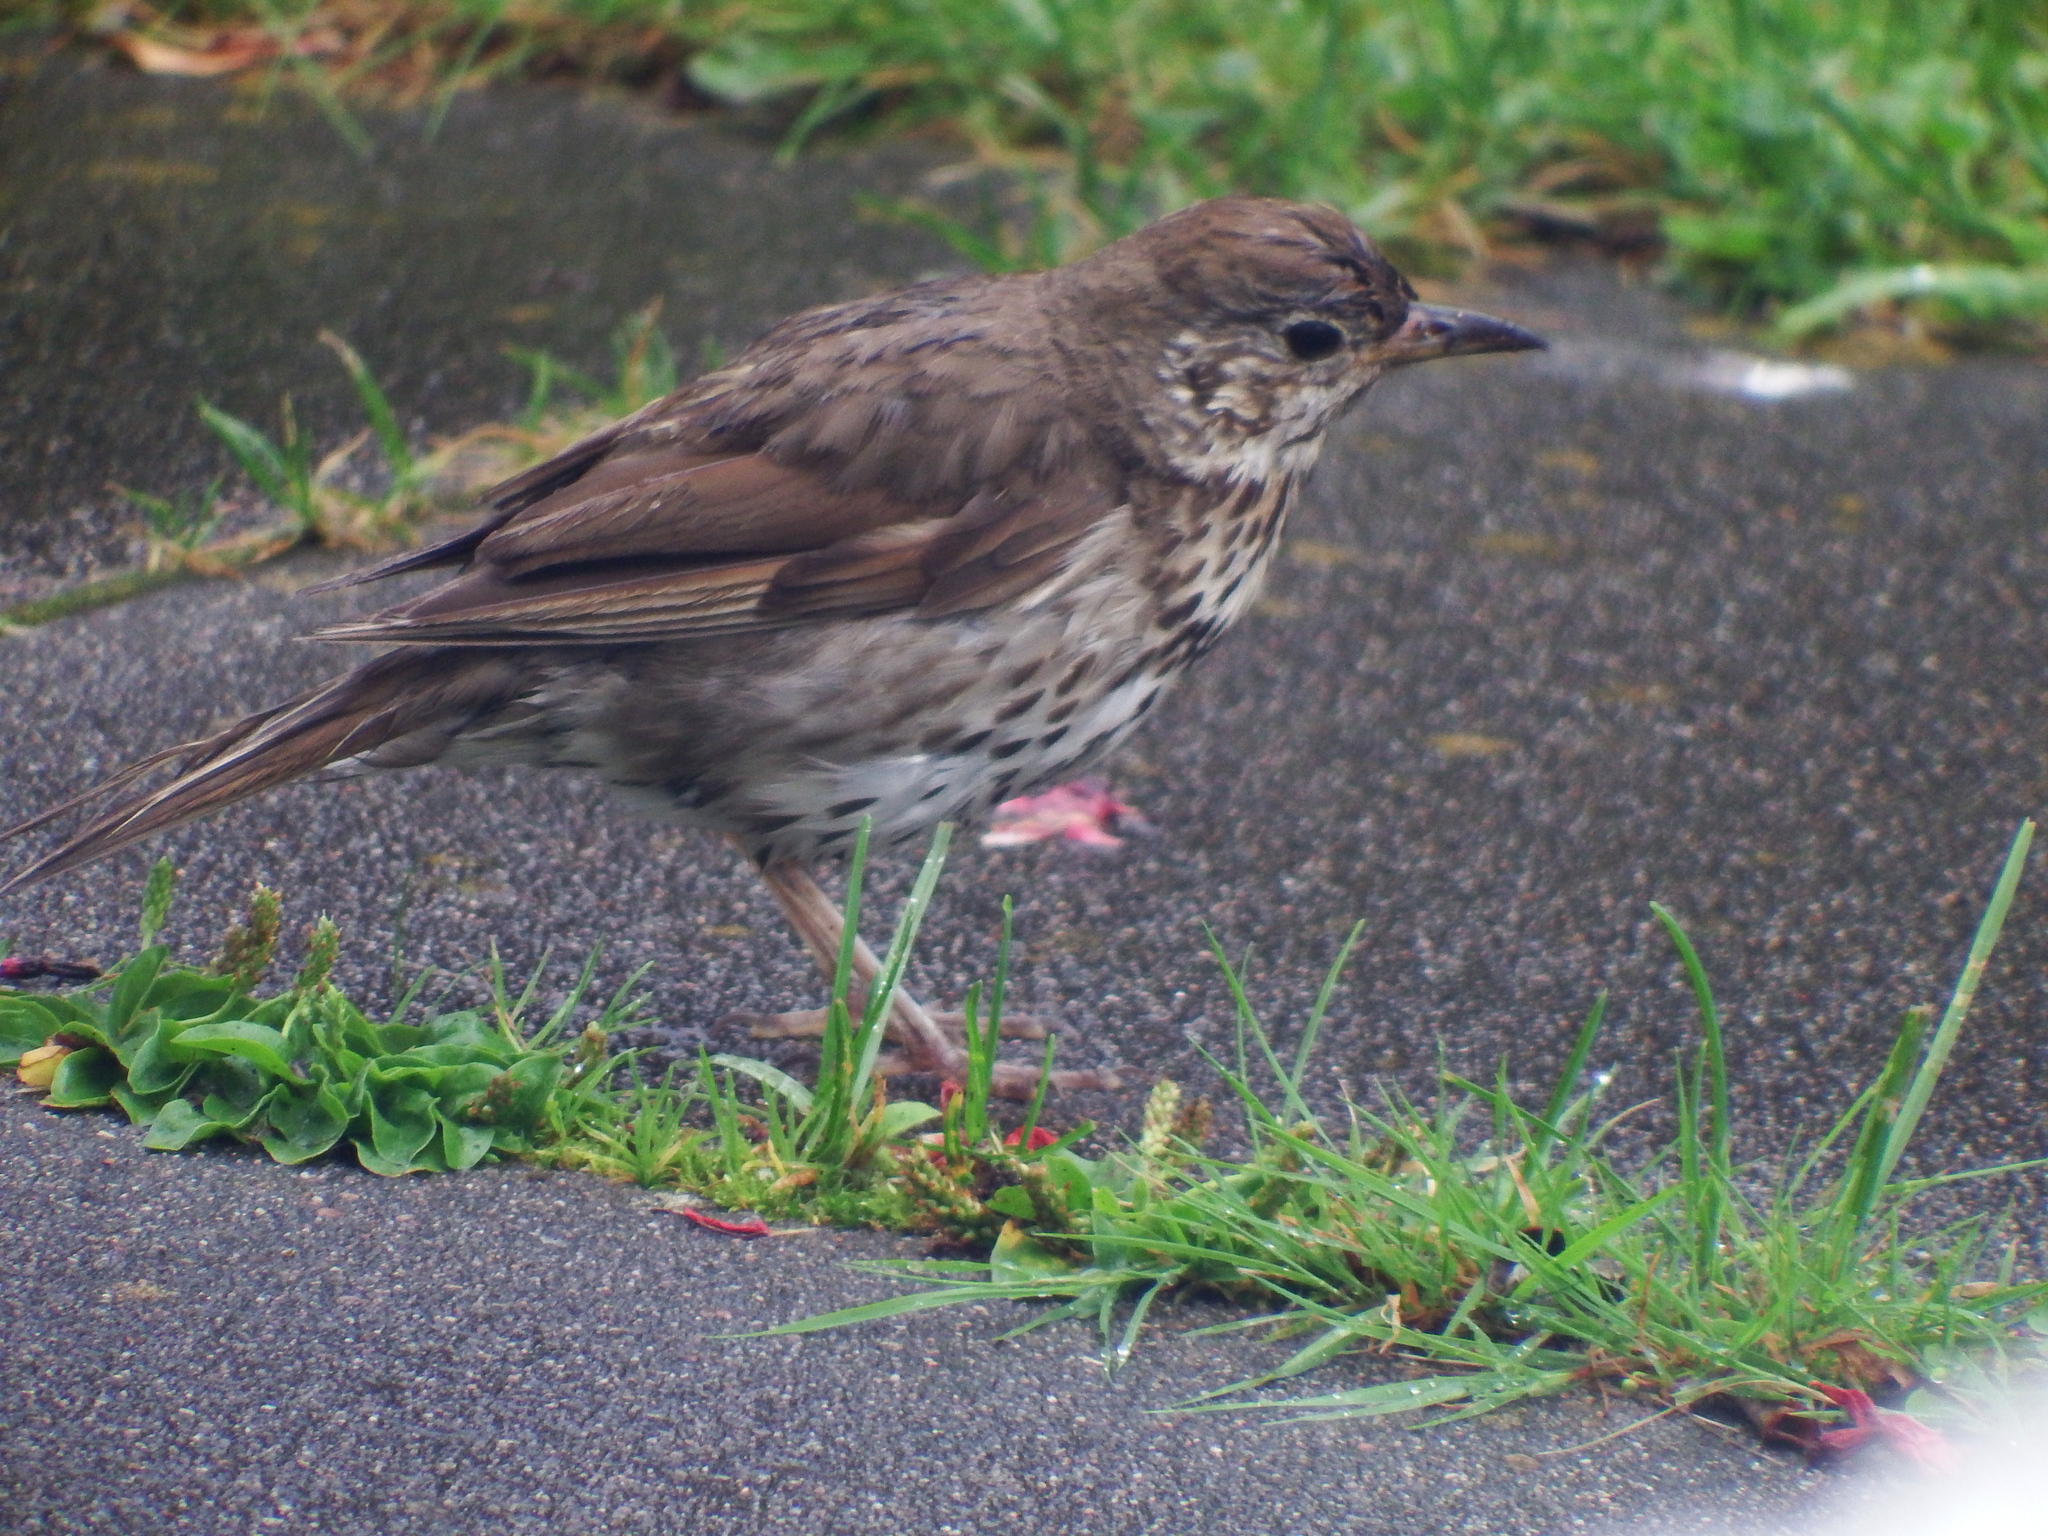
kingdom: Animalia
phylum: Chordata
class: Aves
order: Passeriformes
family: Turdidae
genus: Turdus
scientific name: Turdus philomelos
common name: Song thrush
